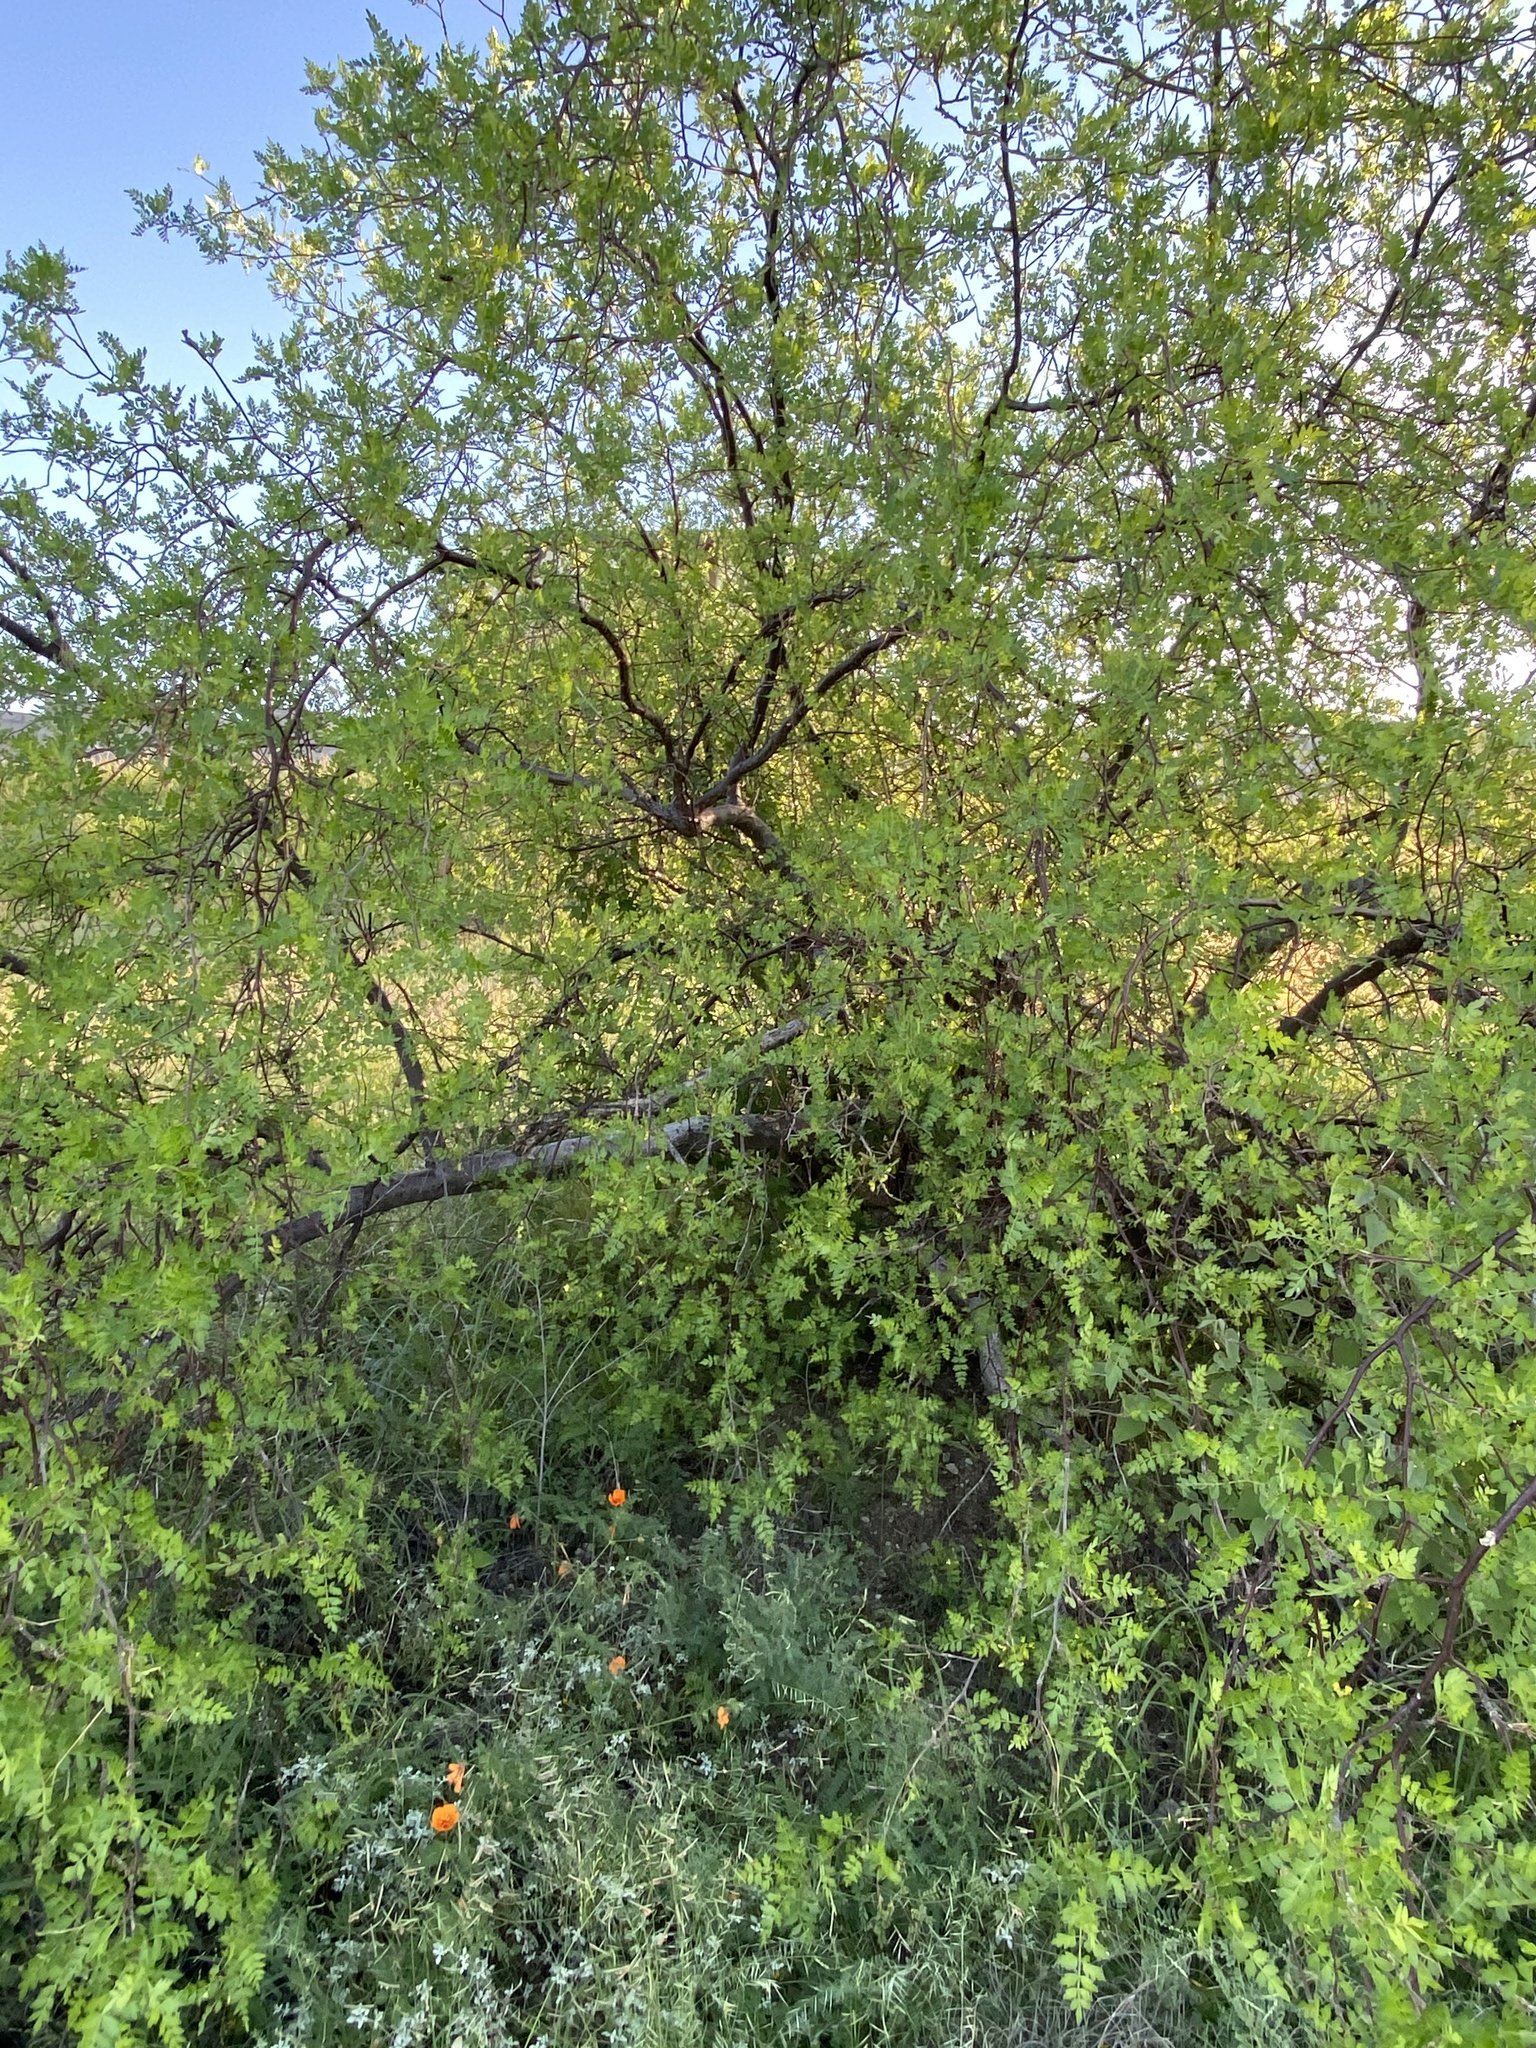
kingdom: Plantae
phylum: Tracheophyta
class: Magnoliopsida
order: Sapindales
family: Burseraceae
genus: Bursera
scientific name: Bursera laxiflora
